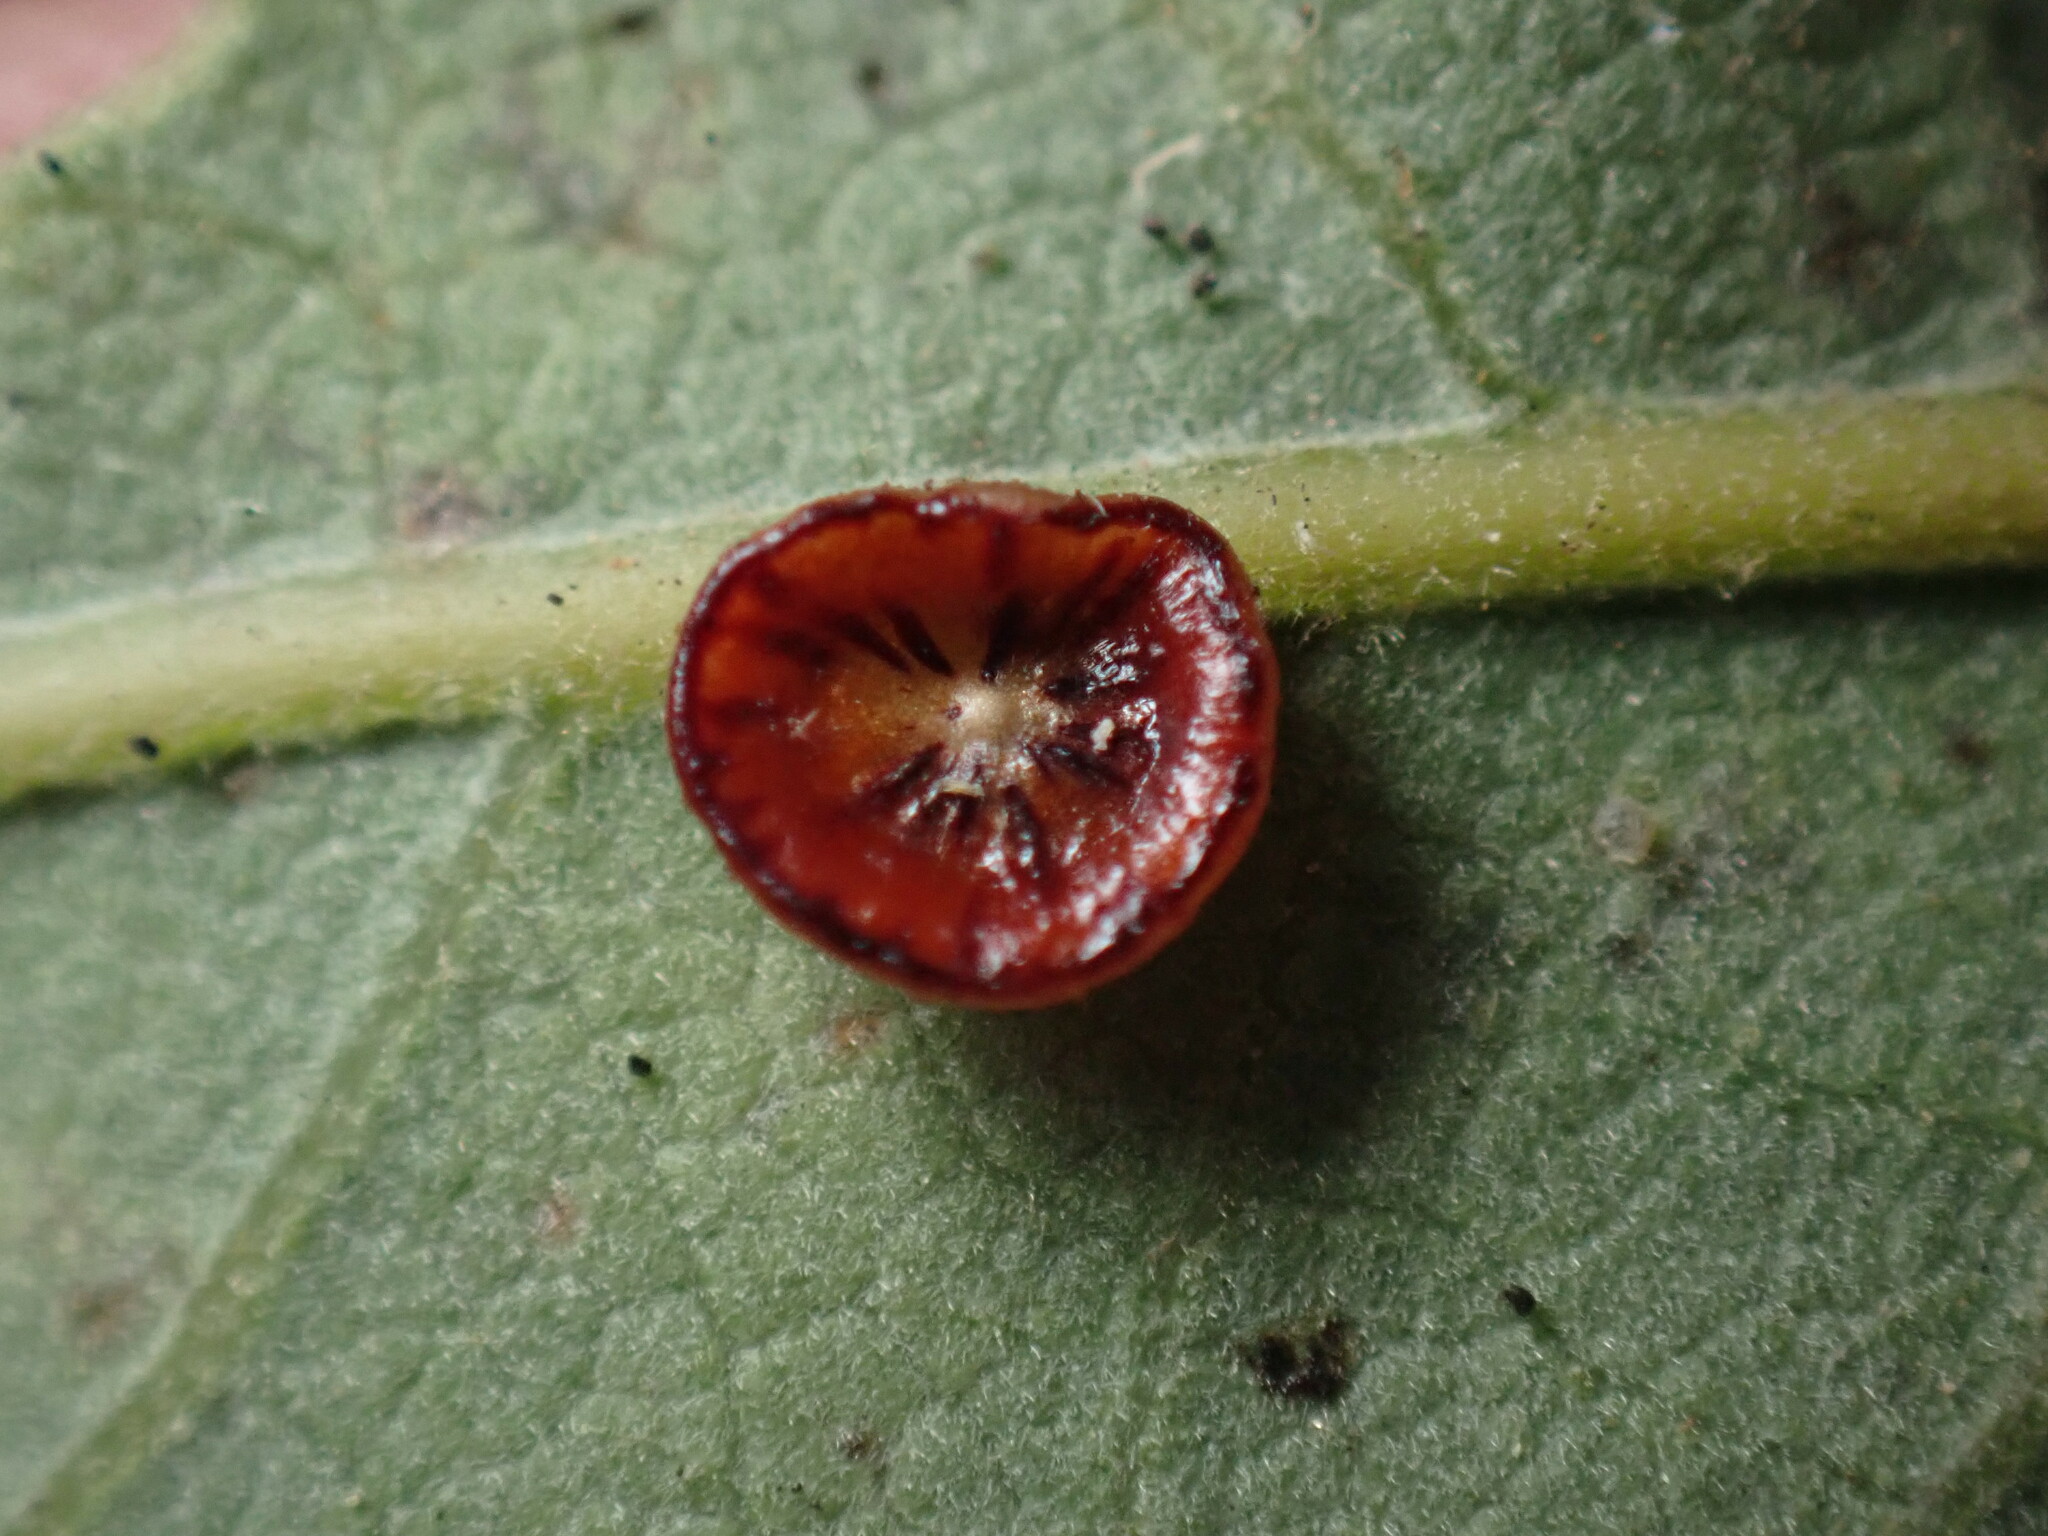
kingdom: Animalia
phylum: Arthropoda
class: Insecta
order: Hymenoptera
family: Cynipidae
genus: Andricus
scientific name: Andricus
